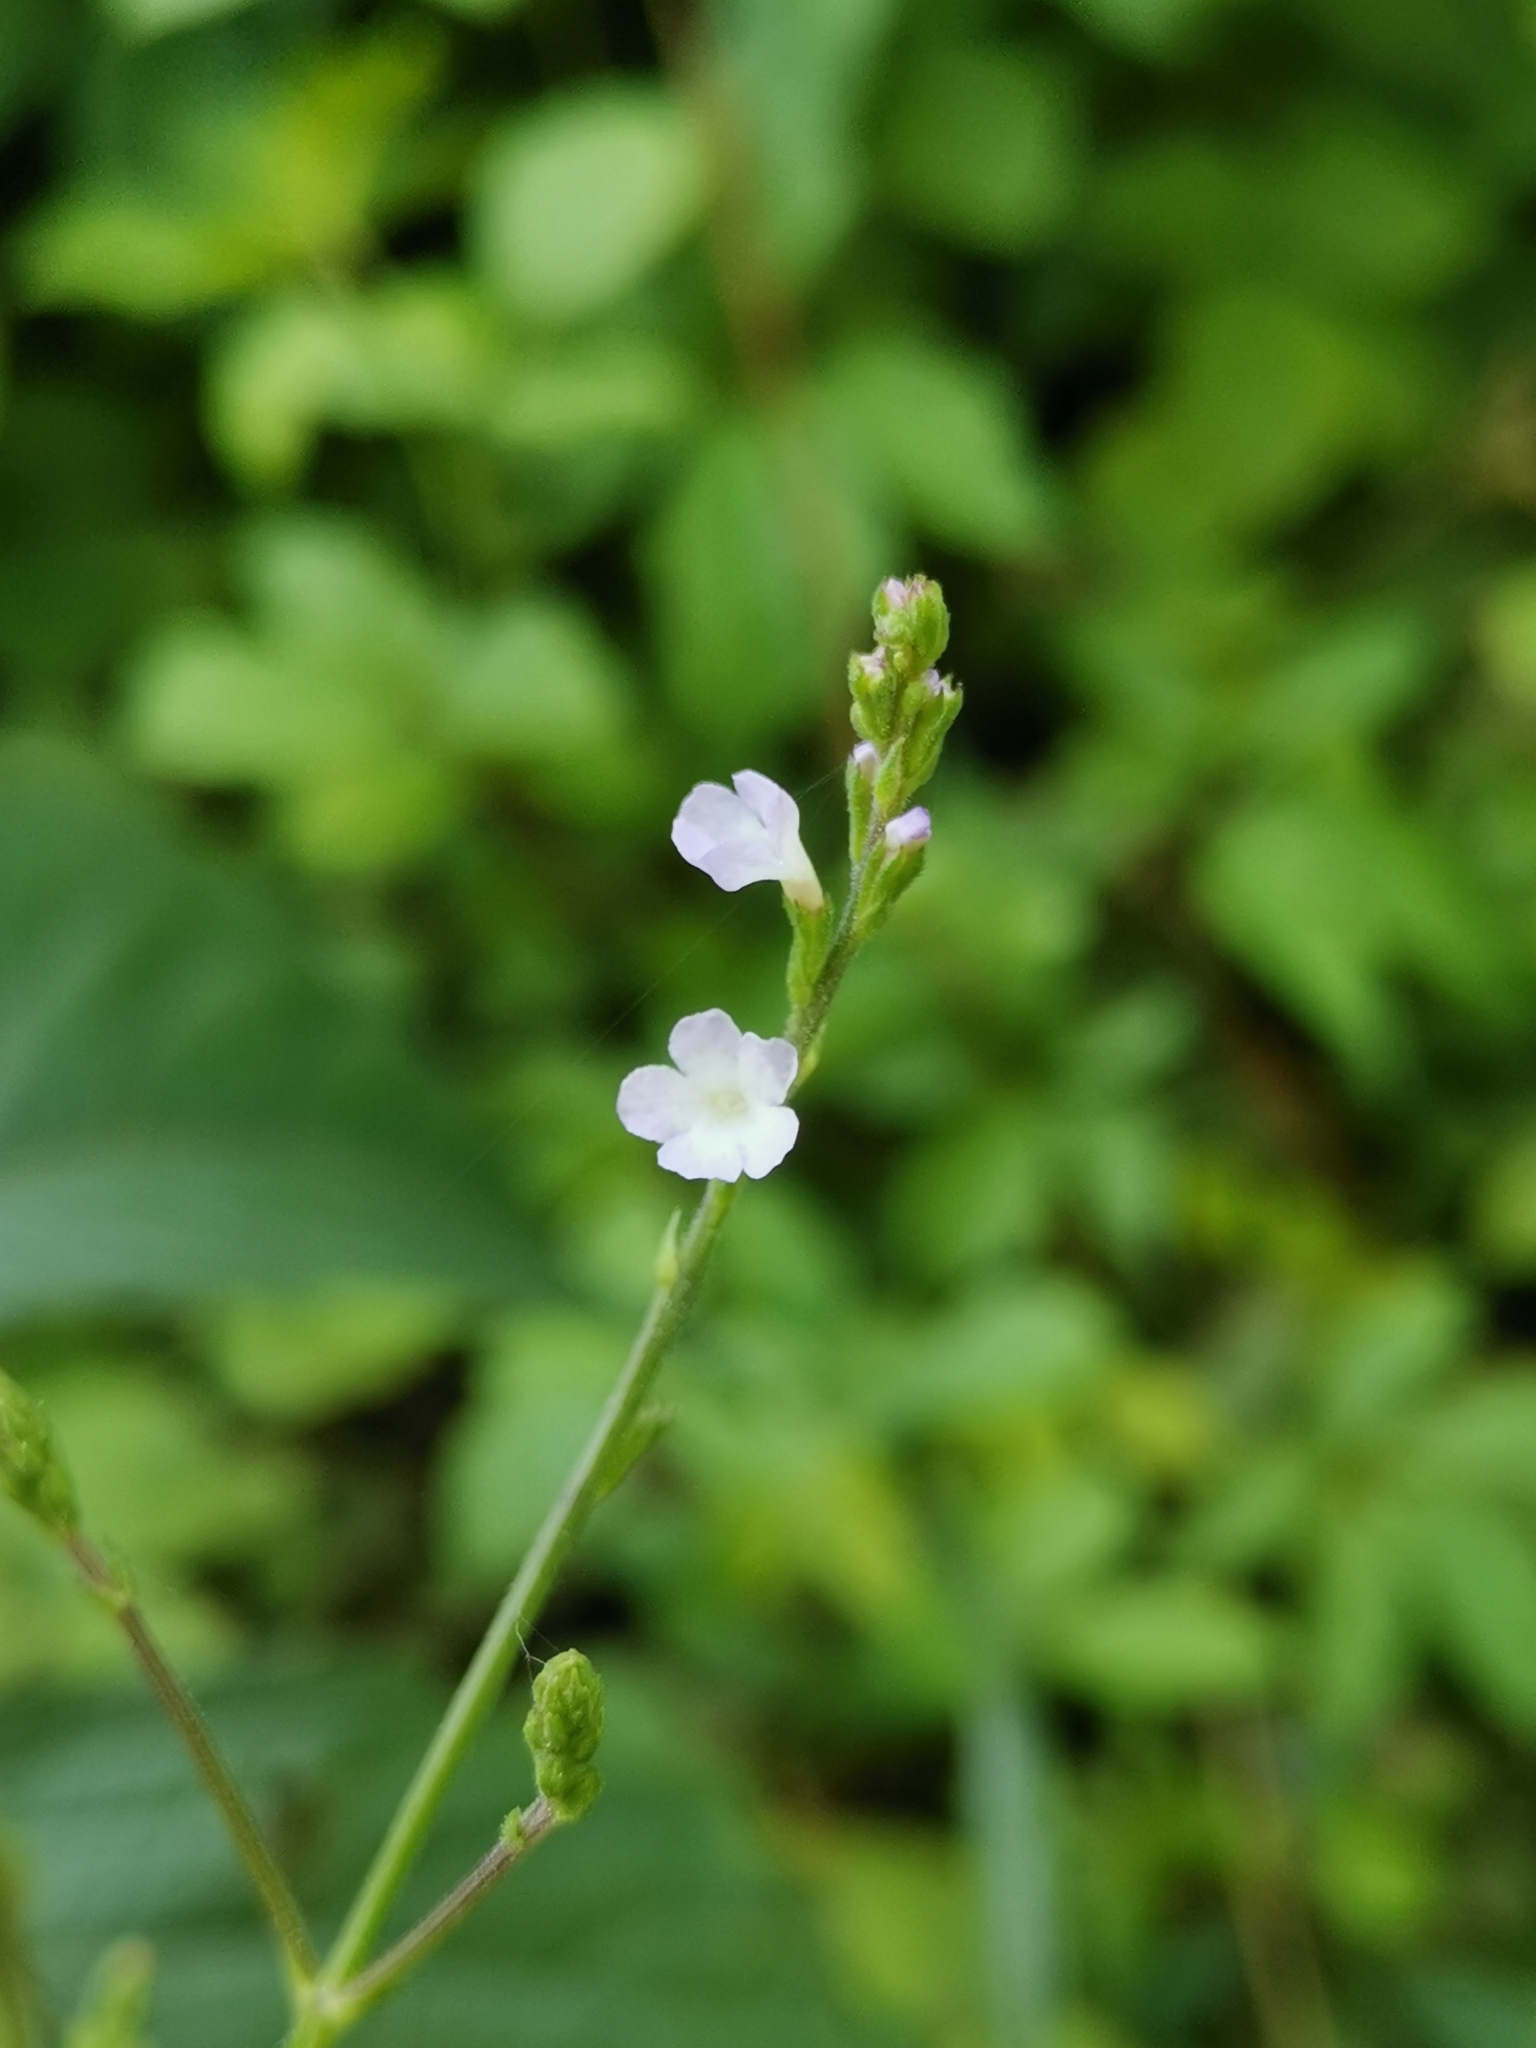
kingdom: Plantae
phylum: Tracheophyta
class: Magnoliopsida
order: Lamiales
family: Verbenaceae
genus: Verbena
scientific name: Verbena officinalis
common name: Vervain
